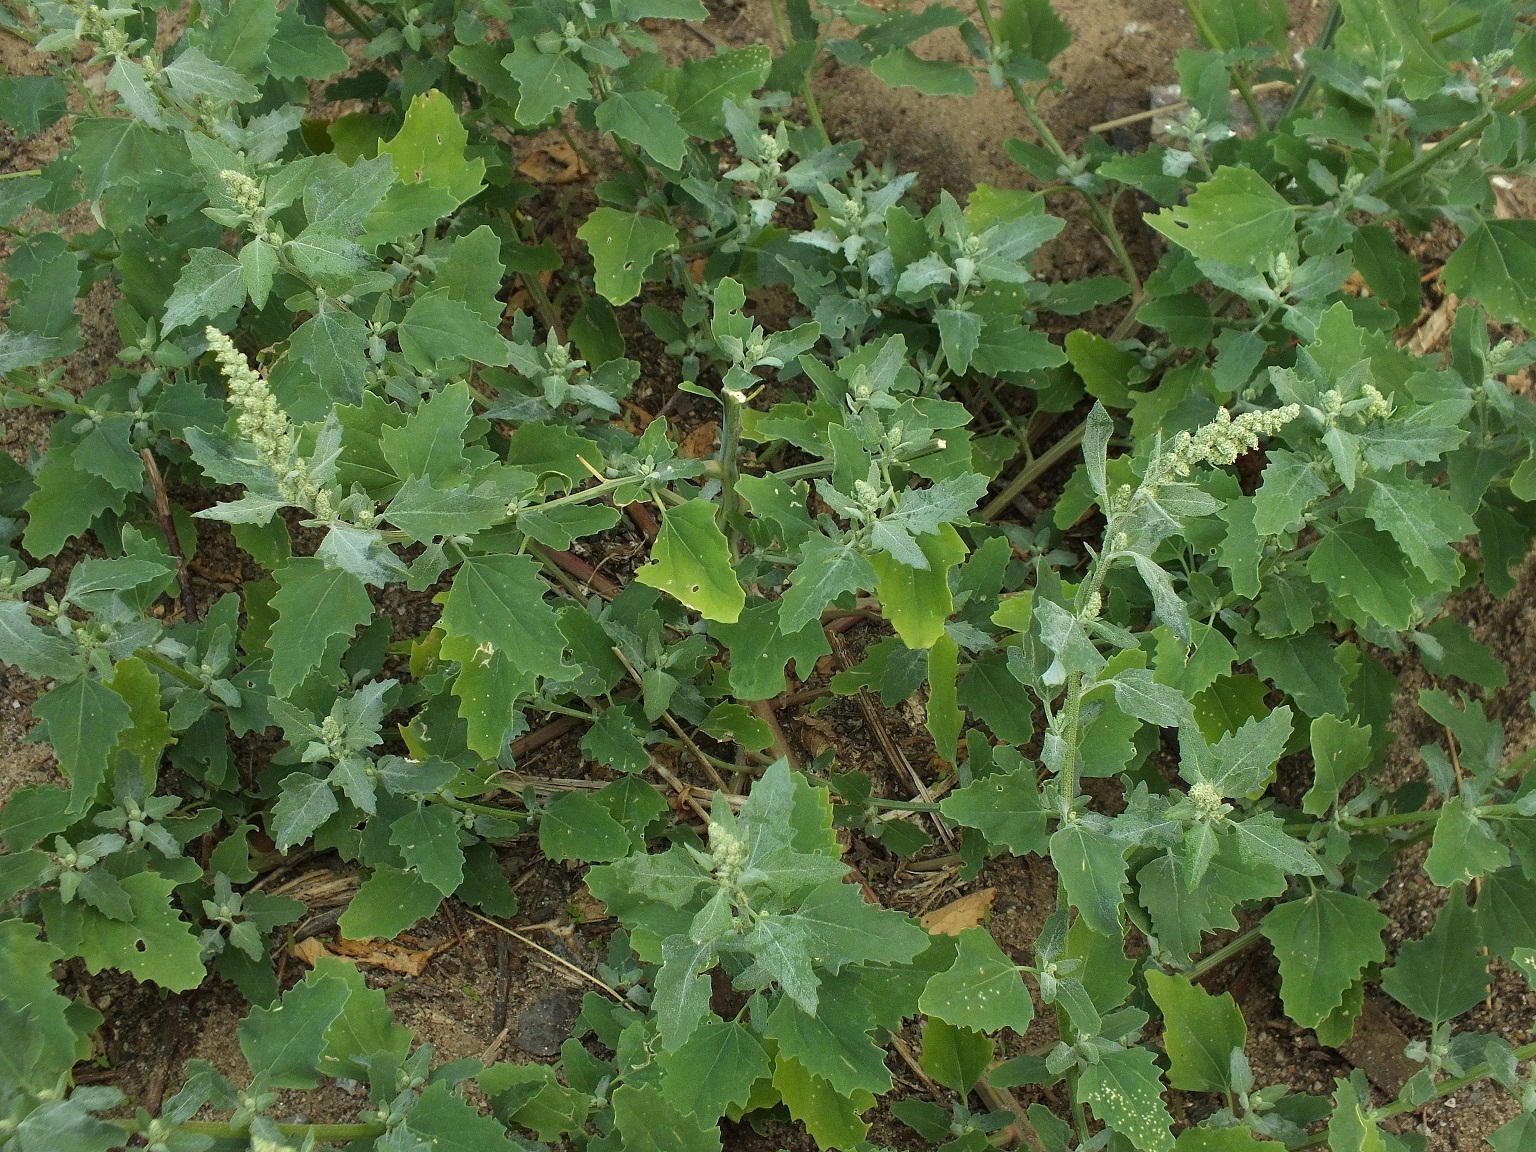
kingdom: Plantae
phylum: Tracheophyta
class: Magnoliopsida
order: Caryophyllales
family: Amaranthaceae
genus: Atriplex
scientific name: Atriplex tatarica
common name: Tatarian orache
